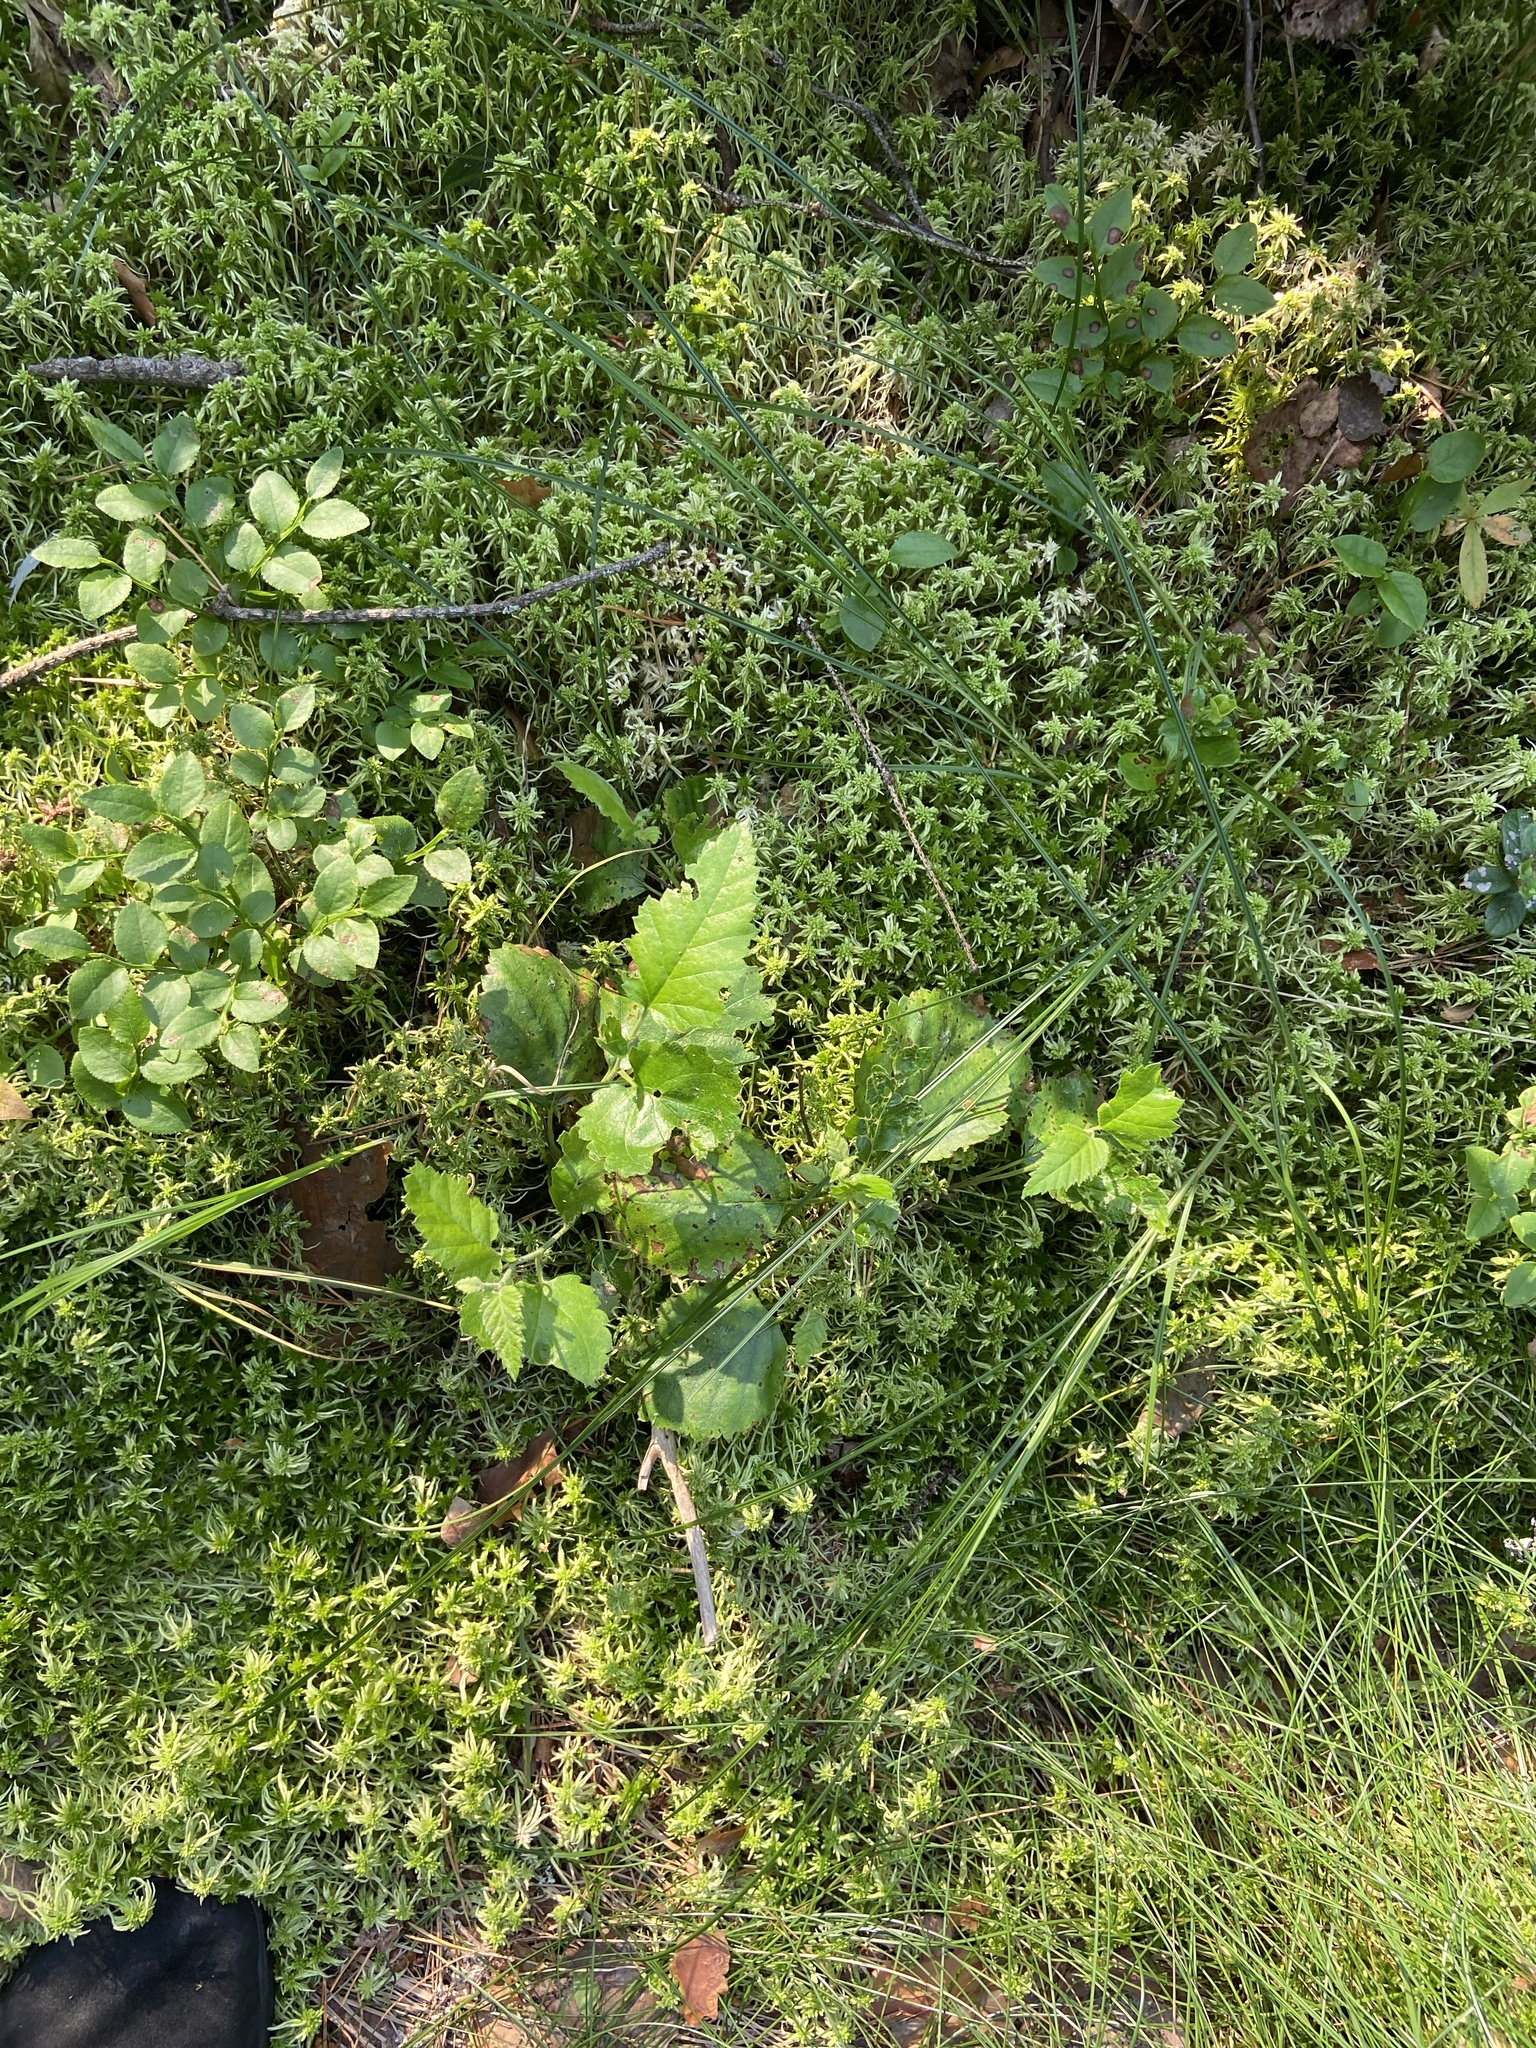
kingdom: Plantae
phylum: Tracheophyta
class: Magnoliopsida
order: Fagales
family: Betulaceae
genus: Betula
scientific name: Betula pubescens
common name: Downy birch
